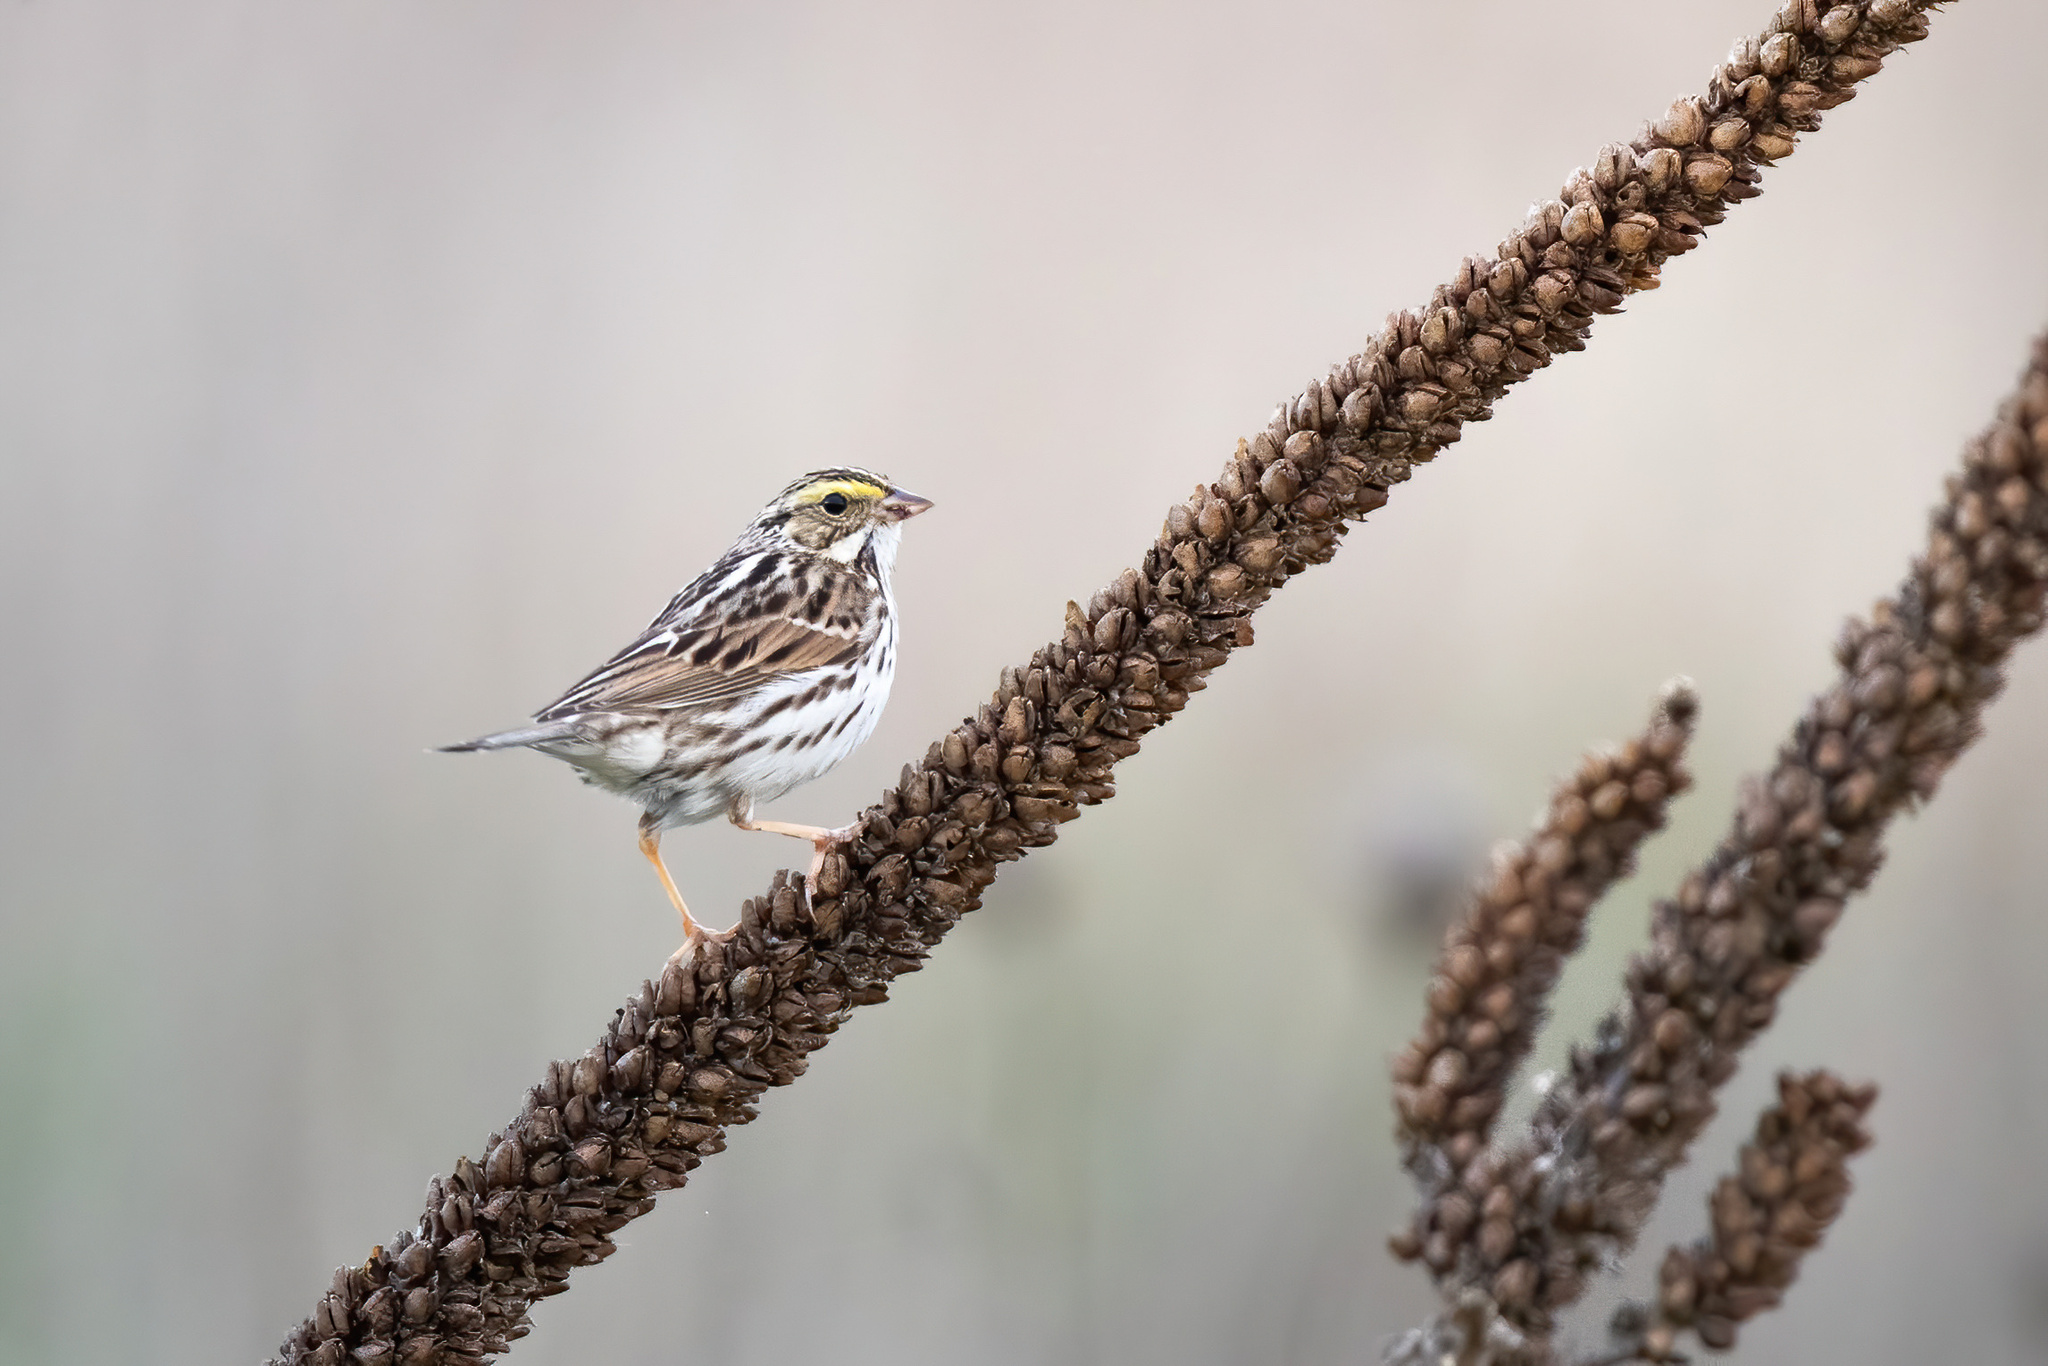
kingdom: Animalia
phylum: Chordata
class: Aves
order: Passeriformes
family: Passerellidae
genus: Passerculus
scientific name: Passerculus sandwichensis
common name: Savannah sparrow
